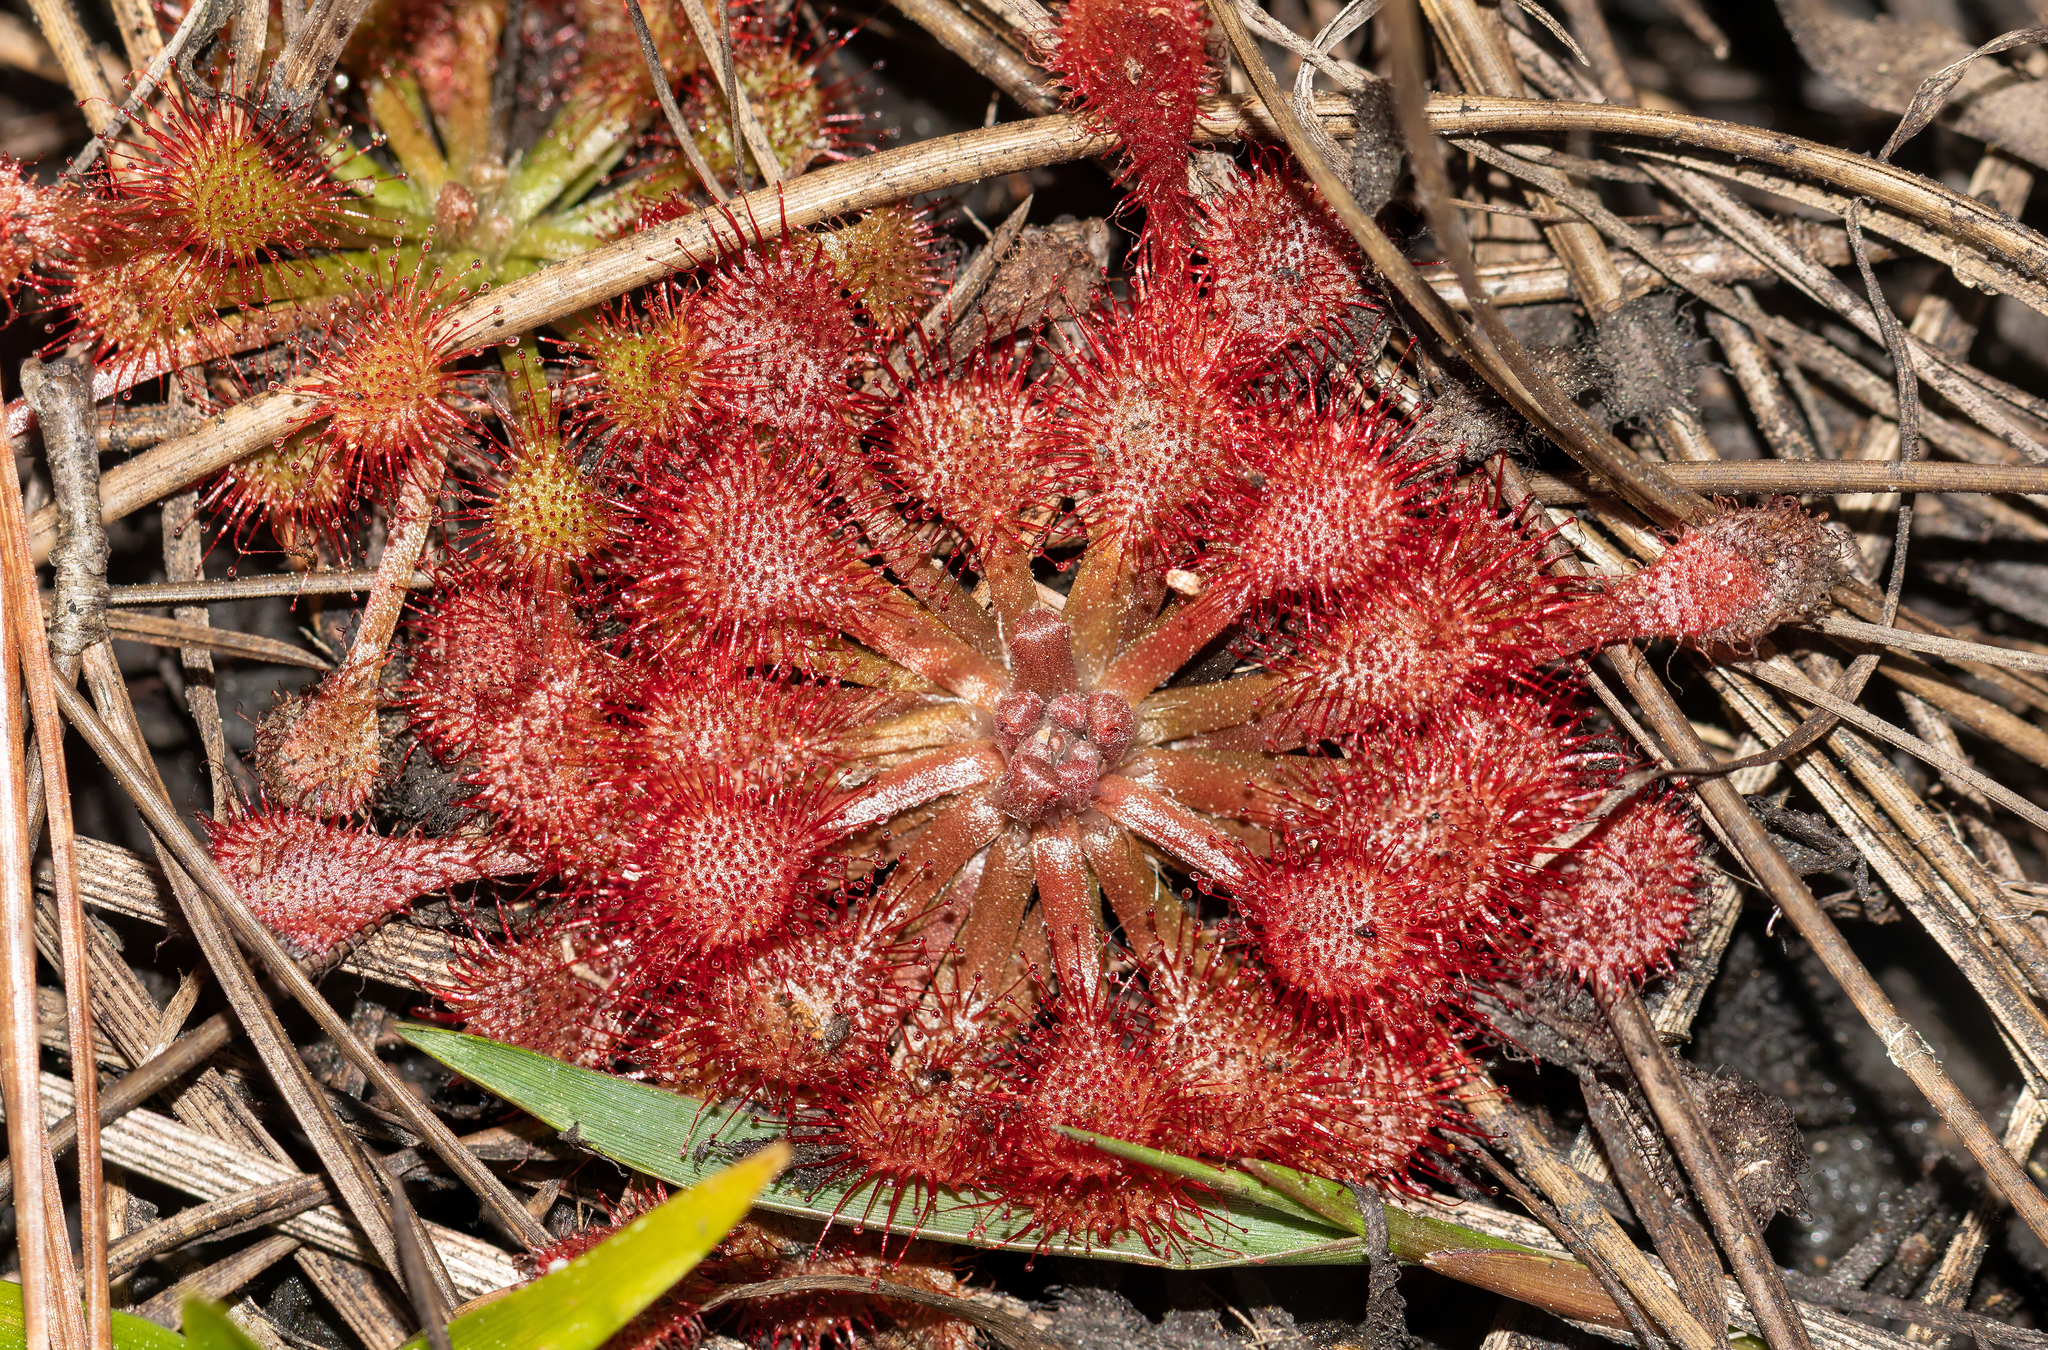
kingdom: Plantae
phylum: Tracheophyta
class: Magnoliopsida
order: Caryophyllales
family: Droseraceae
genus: Drosera
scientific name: Drosera capillaris
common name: Pink sundew
